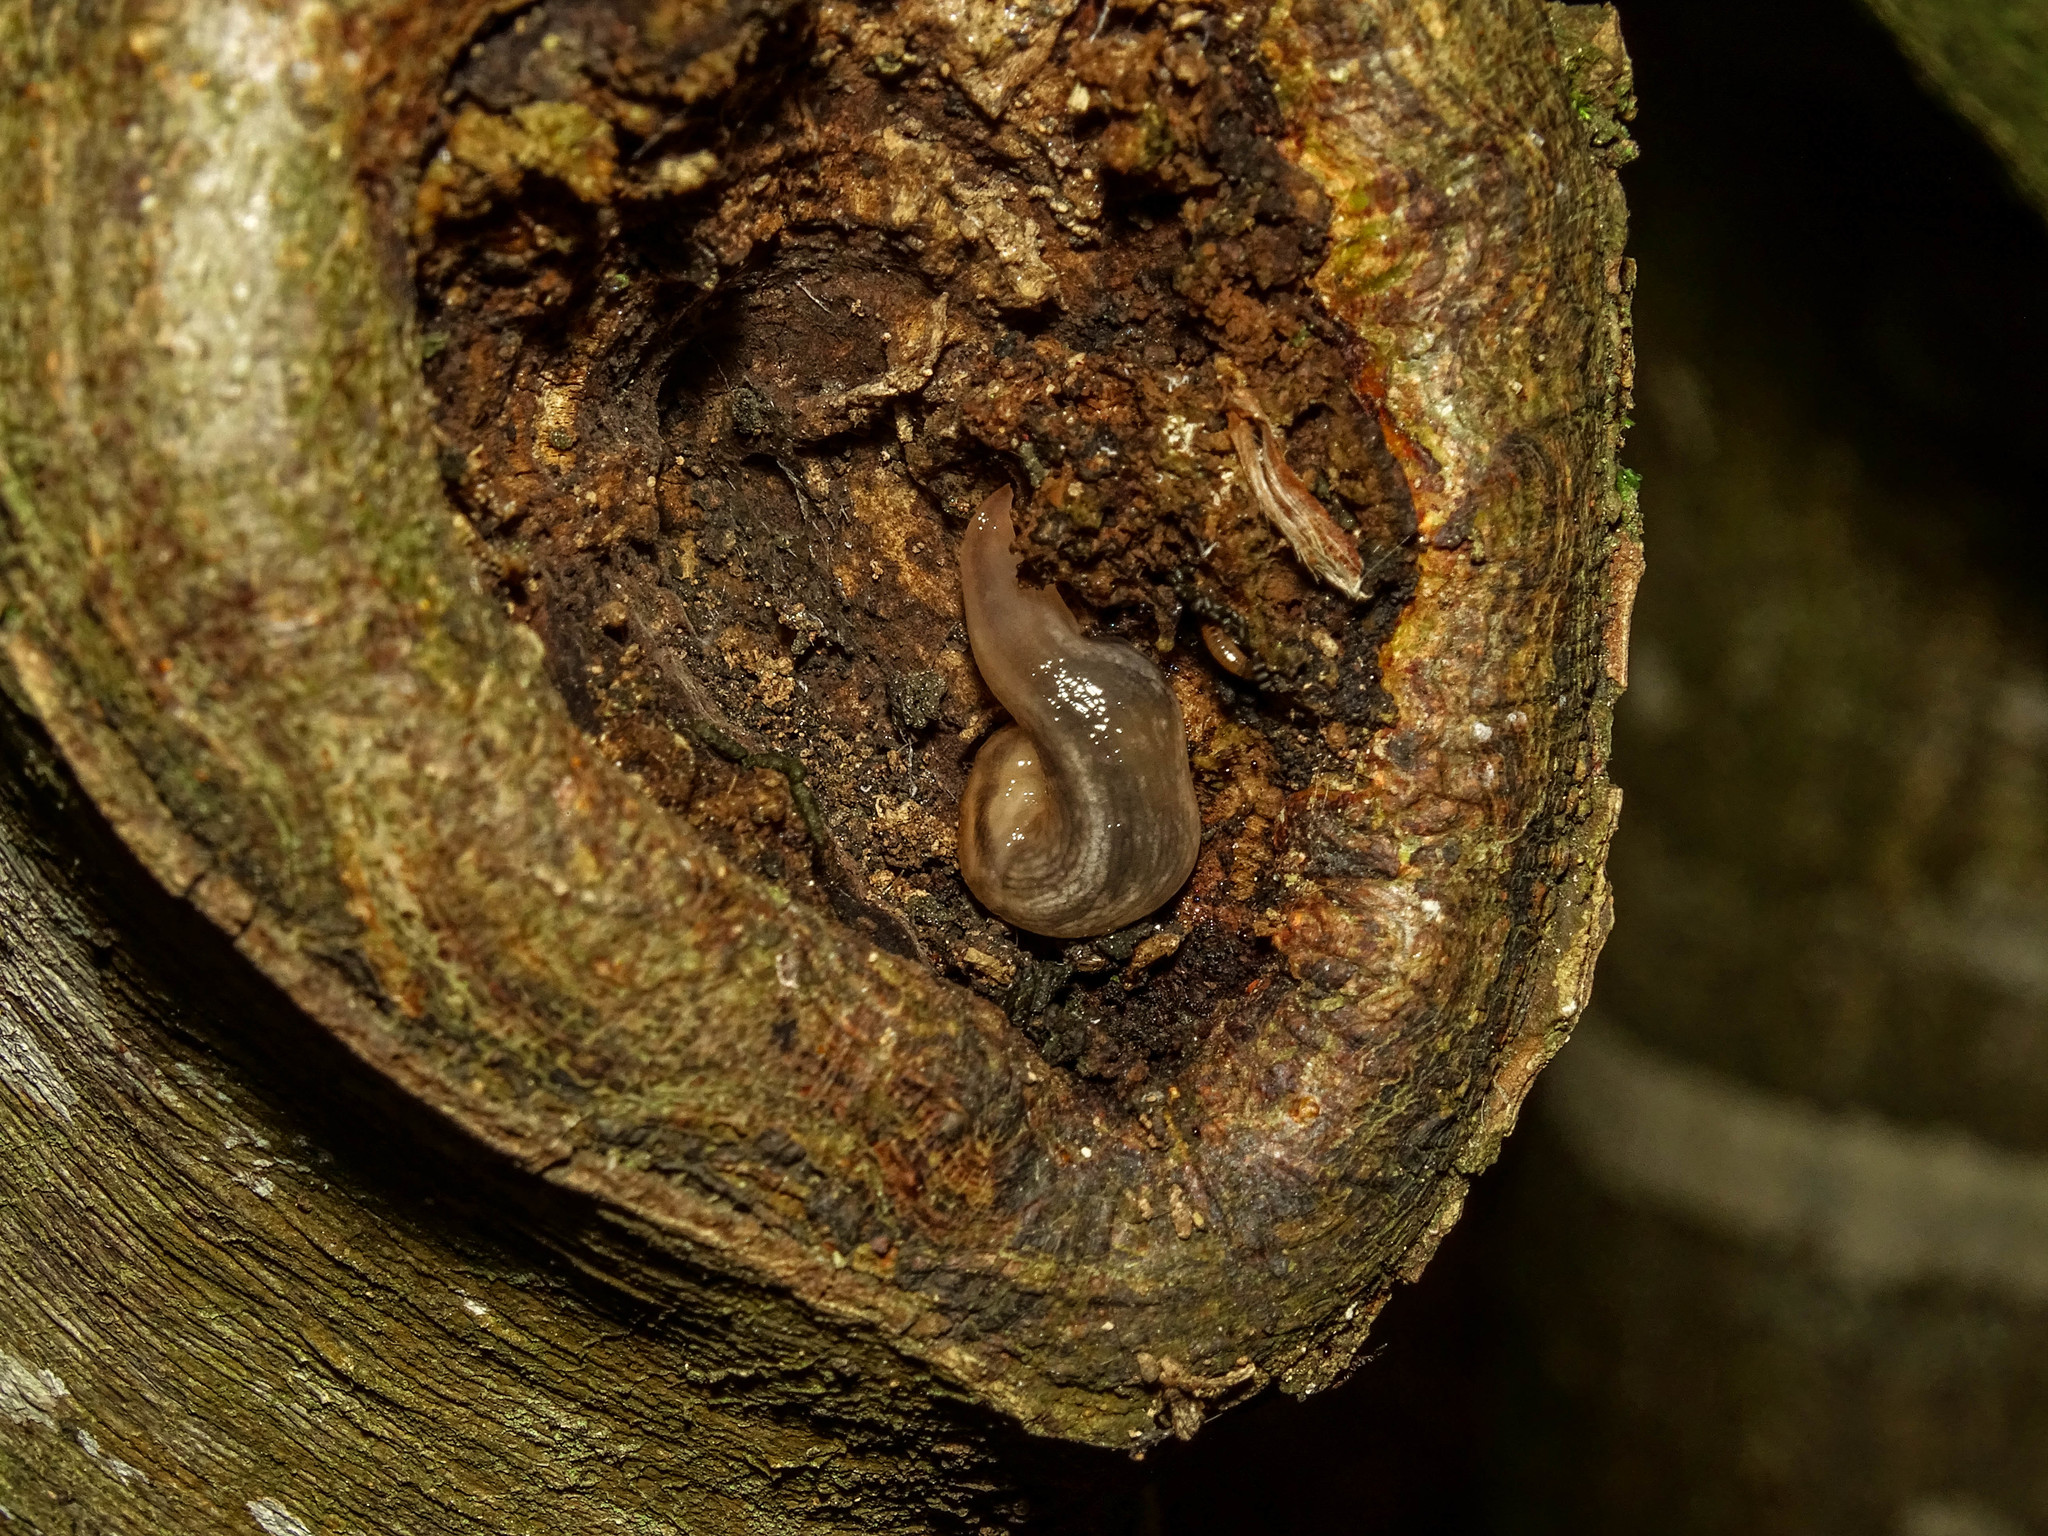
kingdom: Animalia
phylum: Mollusca
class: Gastropoda
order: Stylommatophora
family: Limacidae
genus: Lehmannia
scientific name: Lehmannia marginata
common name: Tree slug
